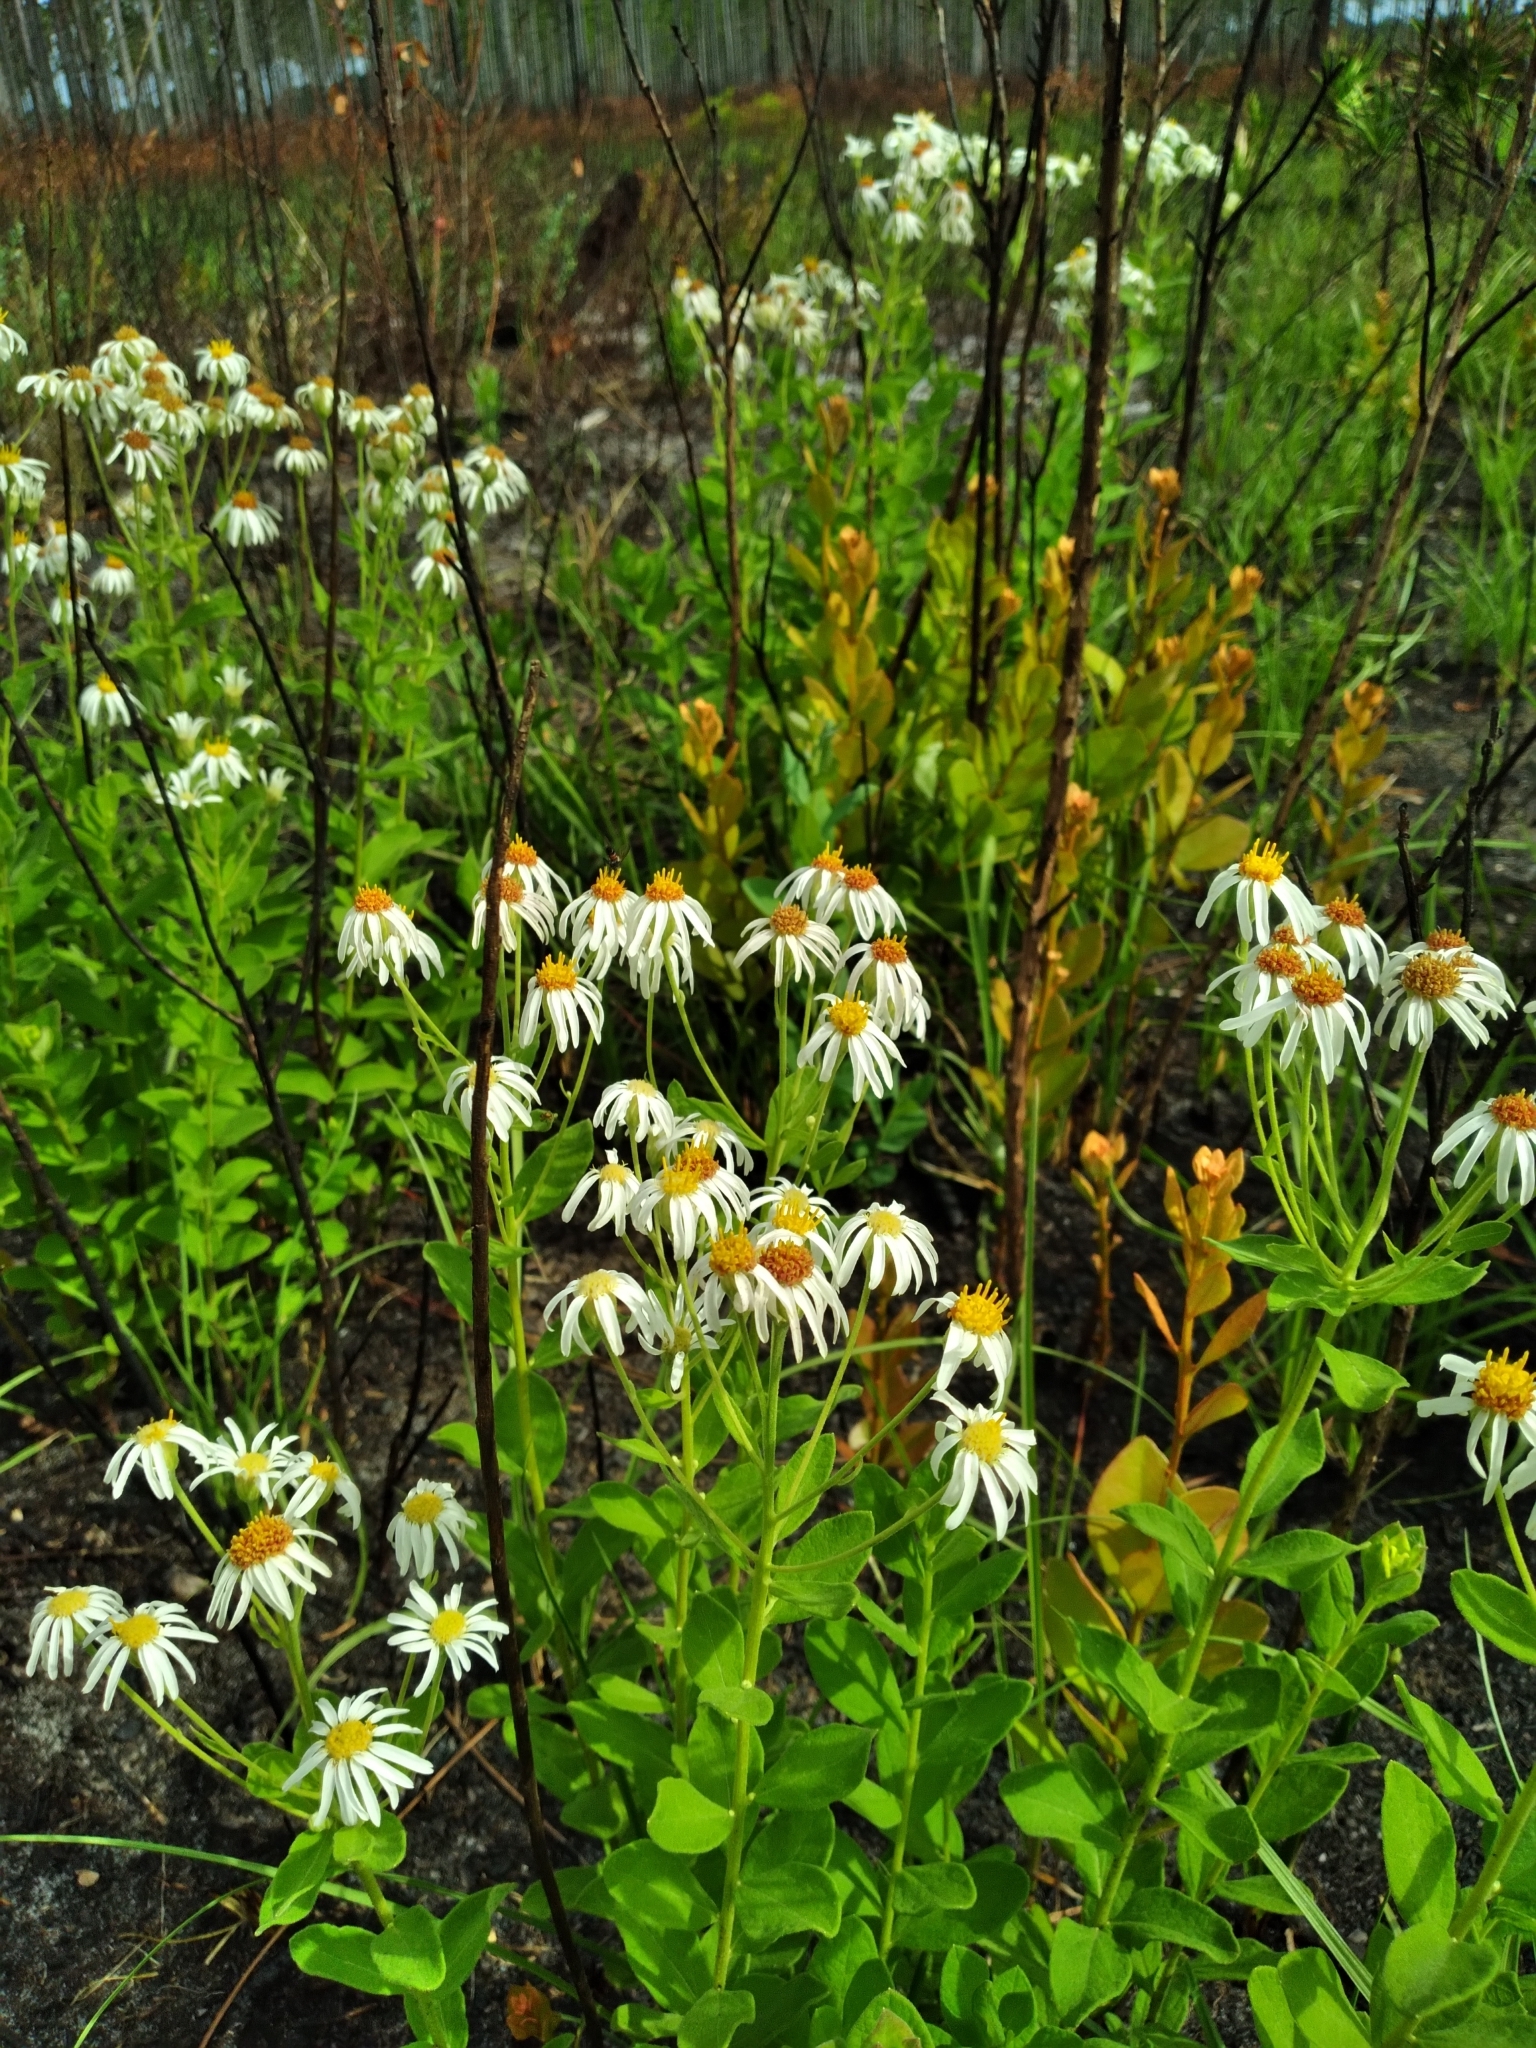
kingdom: Plantae
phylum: Tracheophyta
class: Magnoliopsida
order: Asterales
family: Asteraceae
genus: Oclemena
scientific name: Oclemena reticulata
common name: Pinebarren aster
